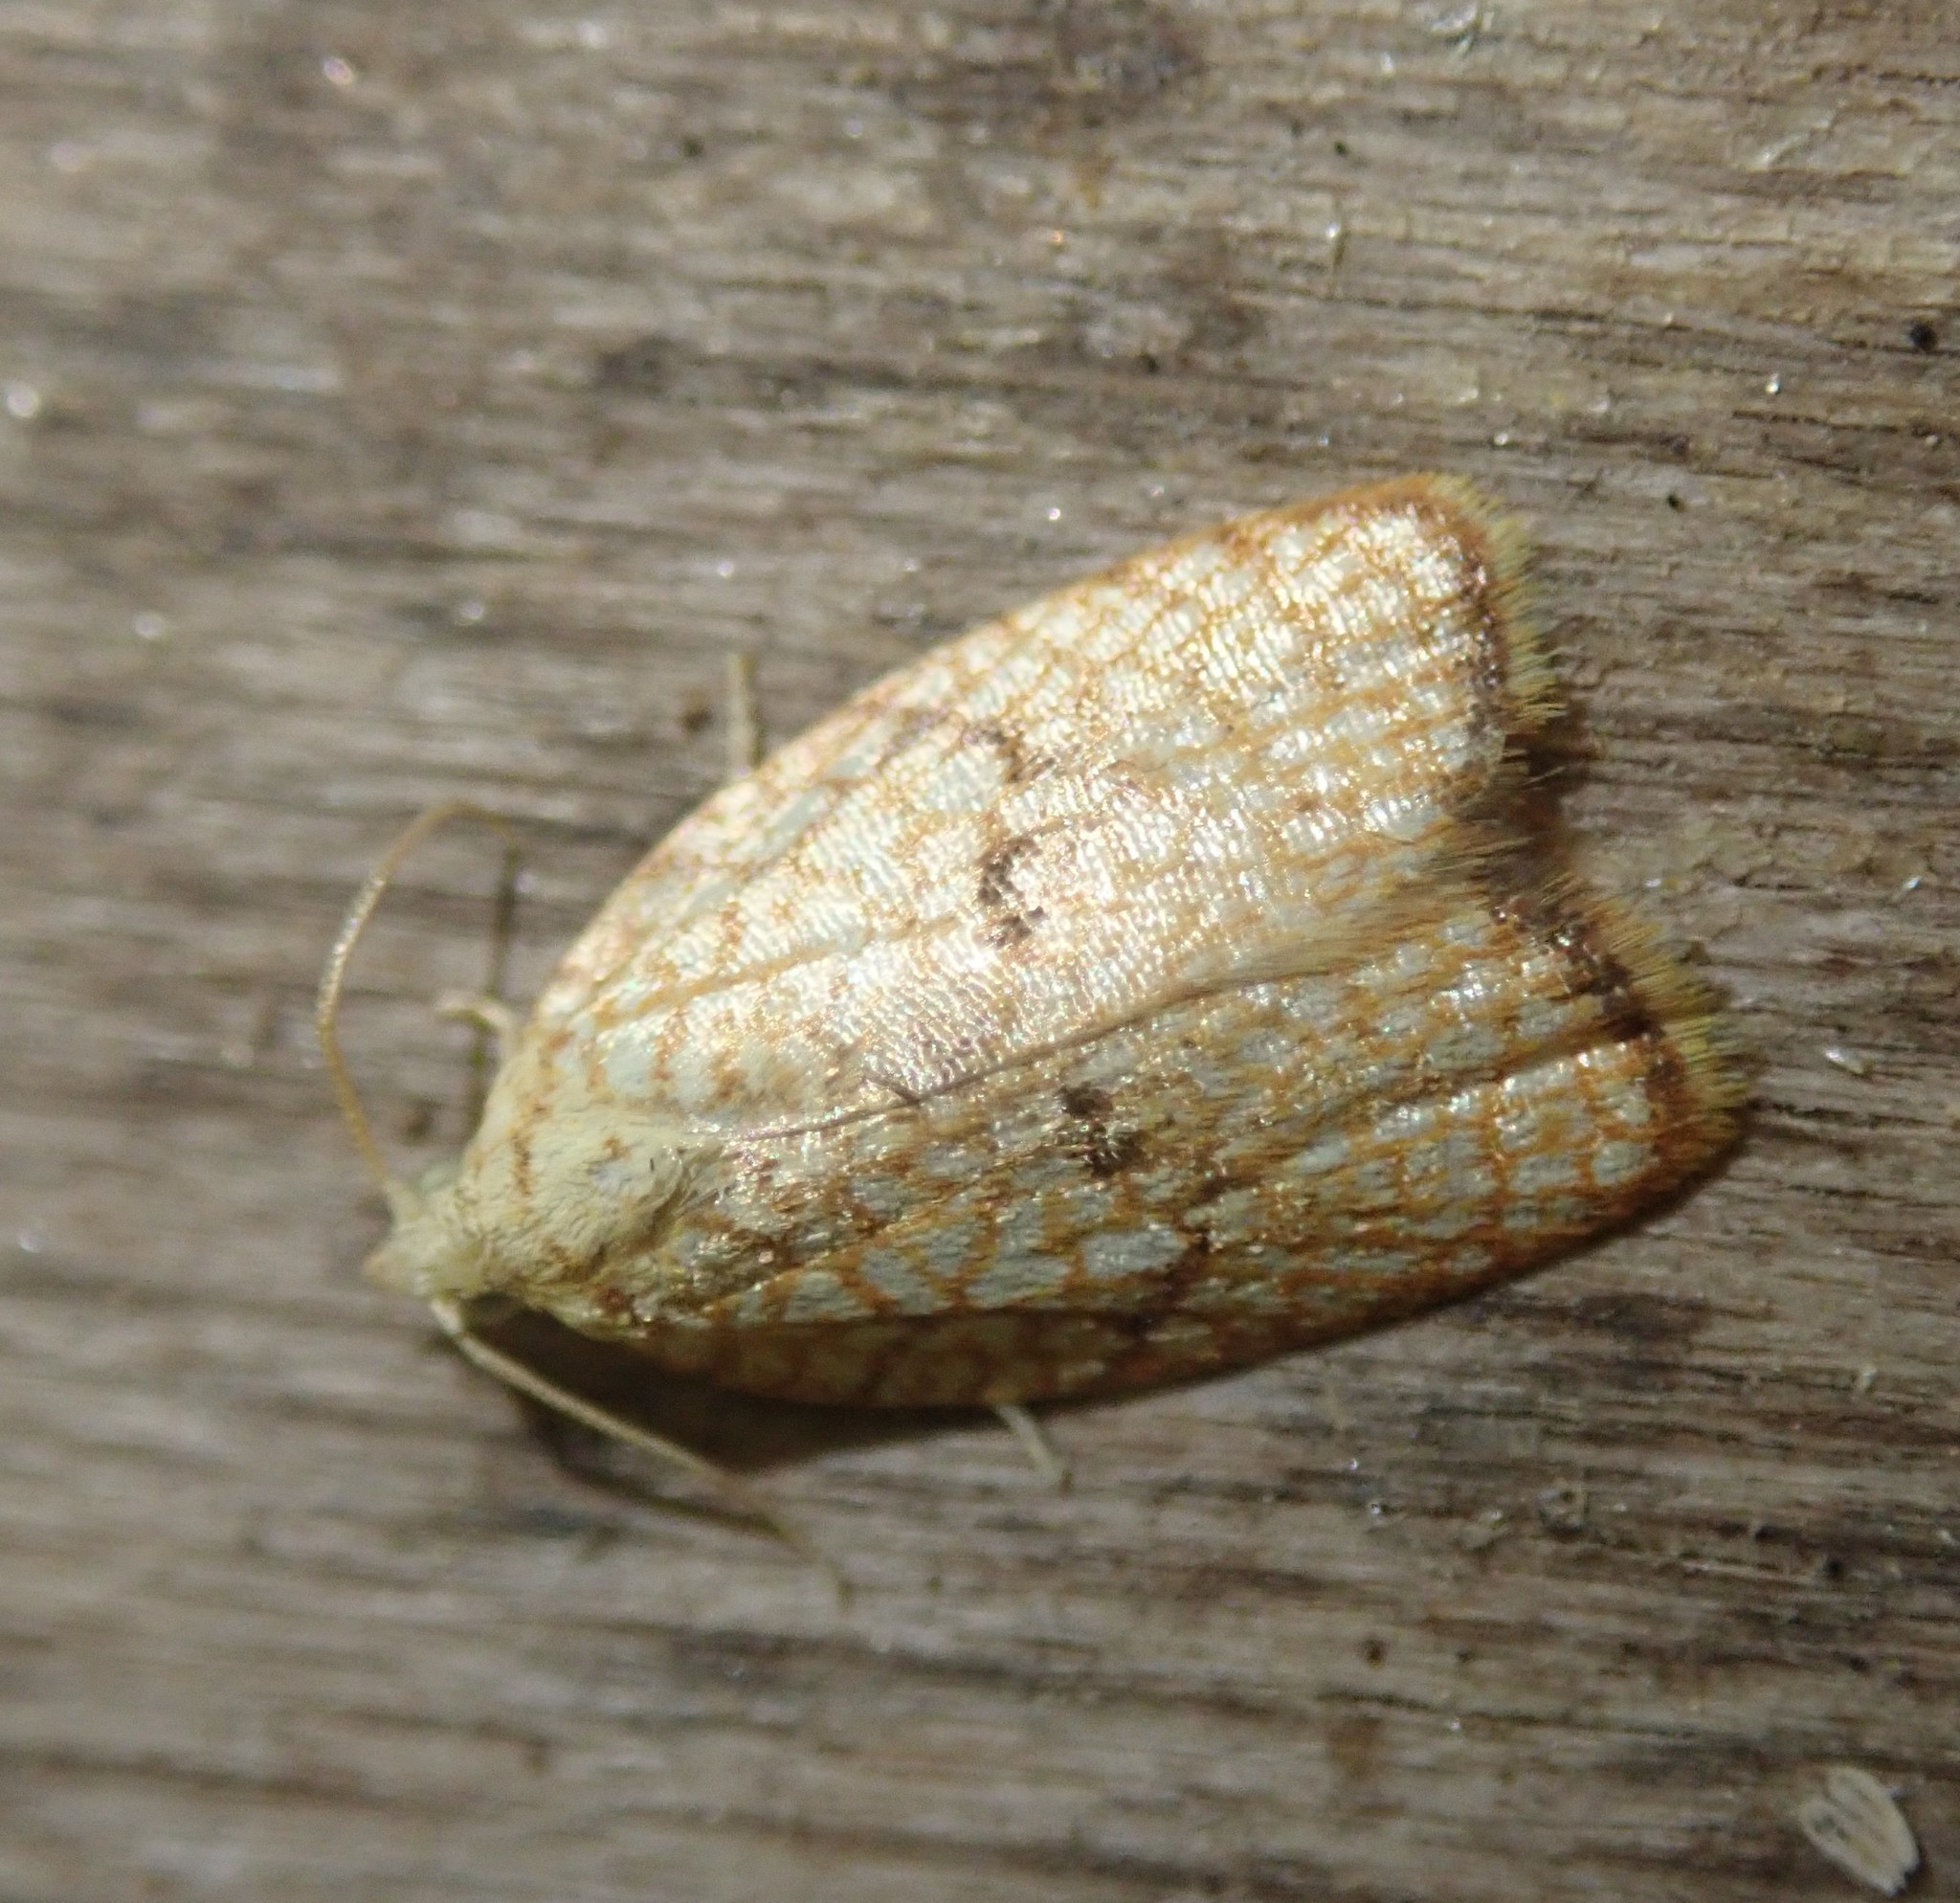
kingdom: Animalia
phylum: Arthropoda
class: Insecta
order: Lepidoptera
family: Tortricidae
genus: Acleris
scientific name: Acleris forsskaleana
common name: Maple button
